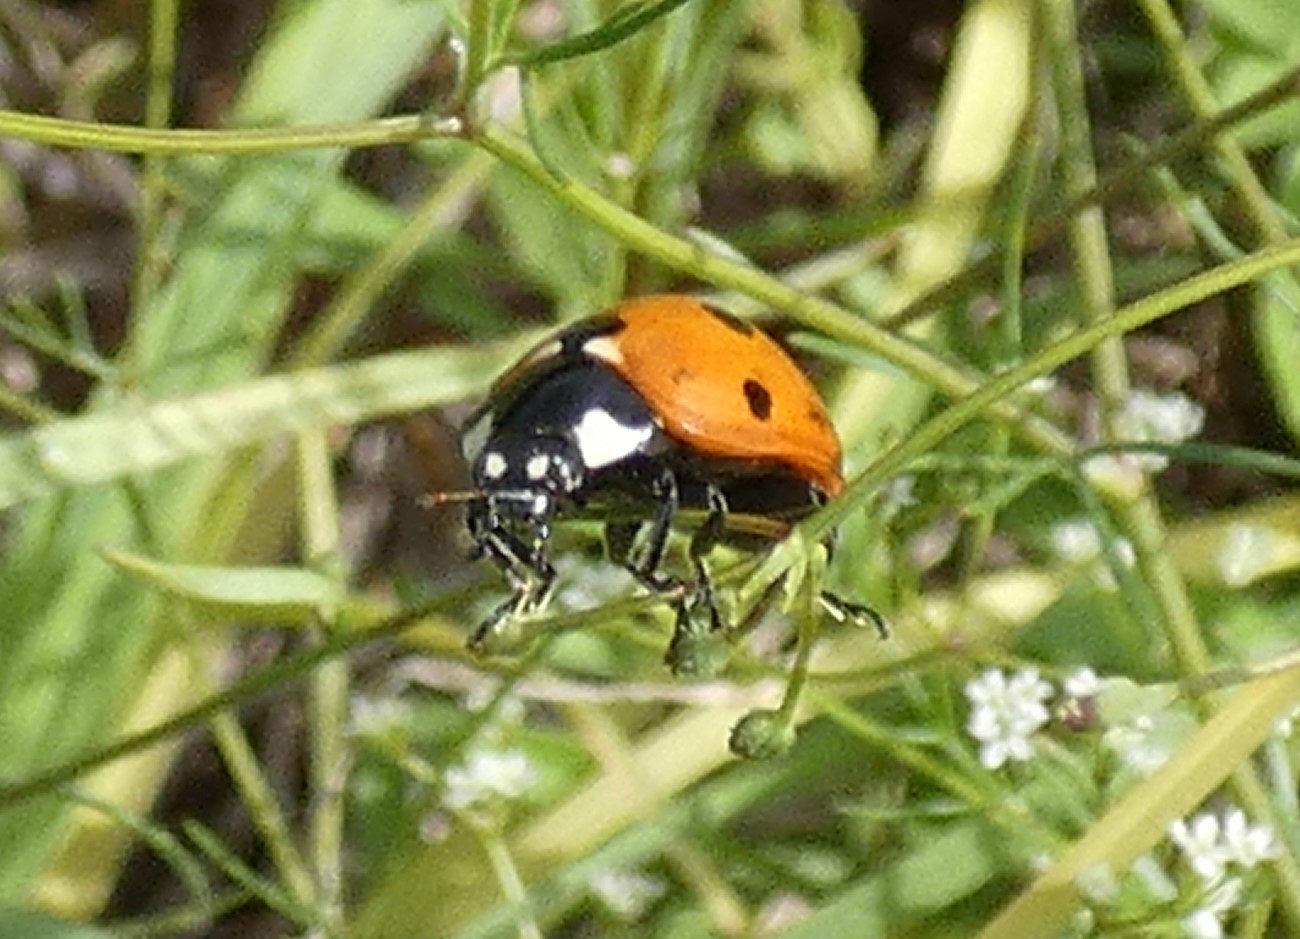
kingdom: Animalia
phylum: Arthropoda
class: Insecta
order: Coleoptera
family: Coccinellidae
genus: Coccinella
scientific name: Coccinella septempunctata
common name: Sevenspotted lady beetle
